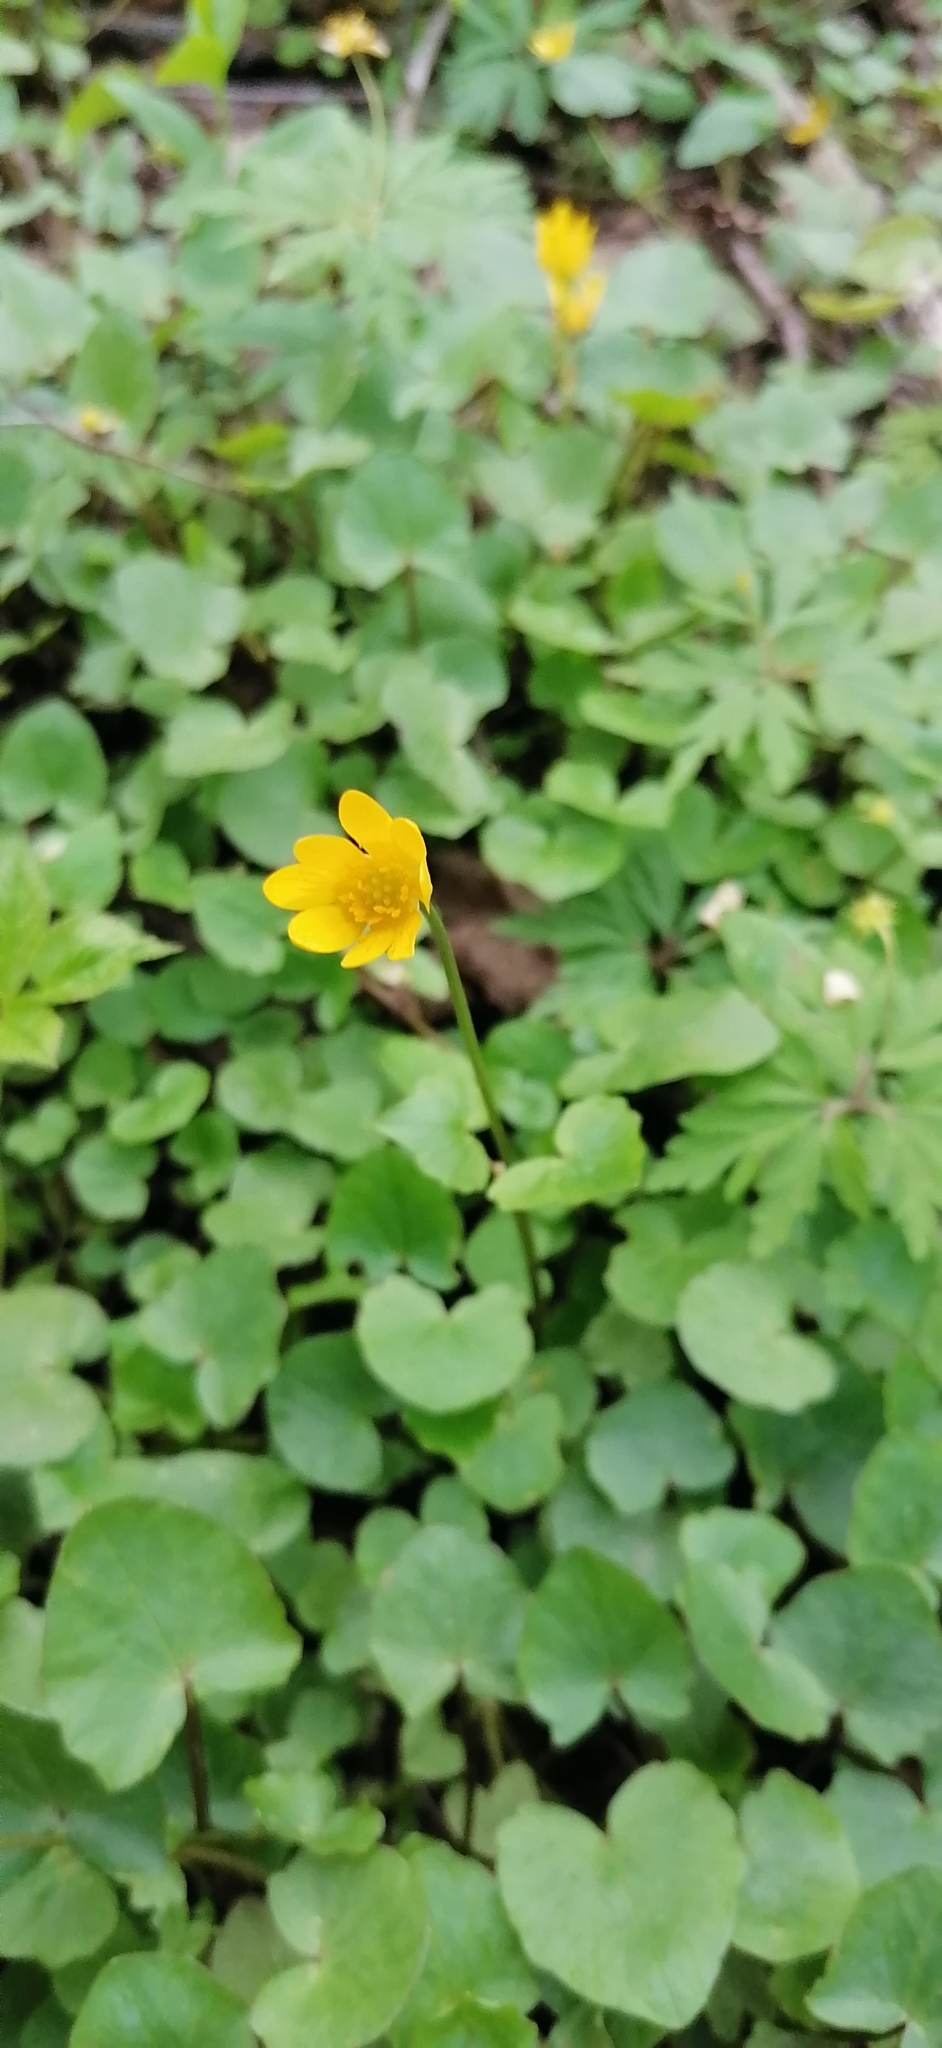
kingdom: Plantae
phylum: Tracheophyta
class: Magnoliopsida
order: Ranunculales
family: Ranunculaceae
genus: Ficaria
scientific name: Ficaria verna
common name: Lesser celandine
